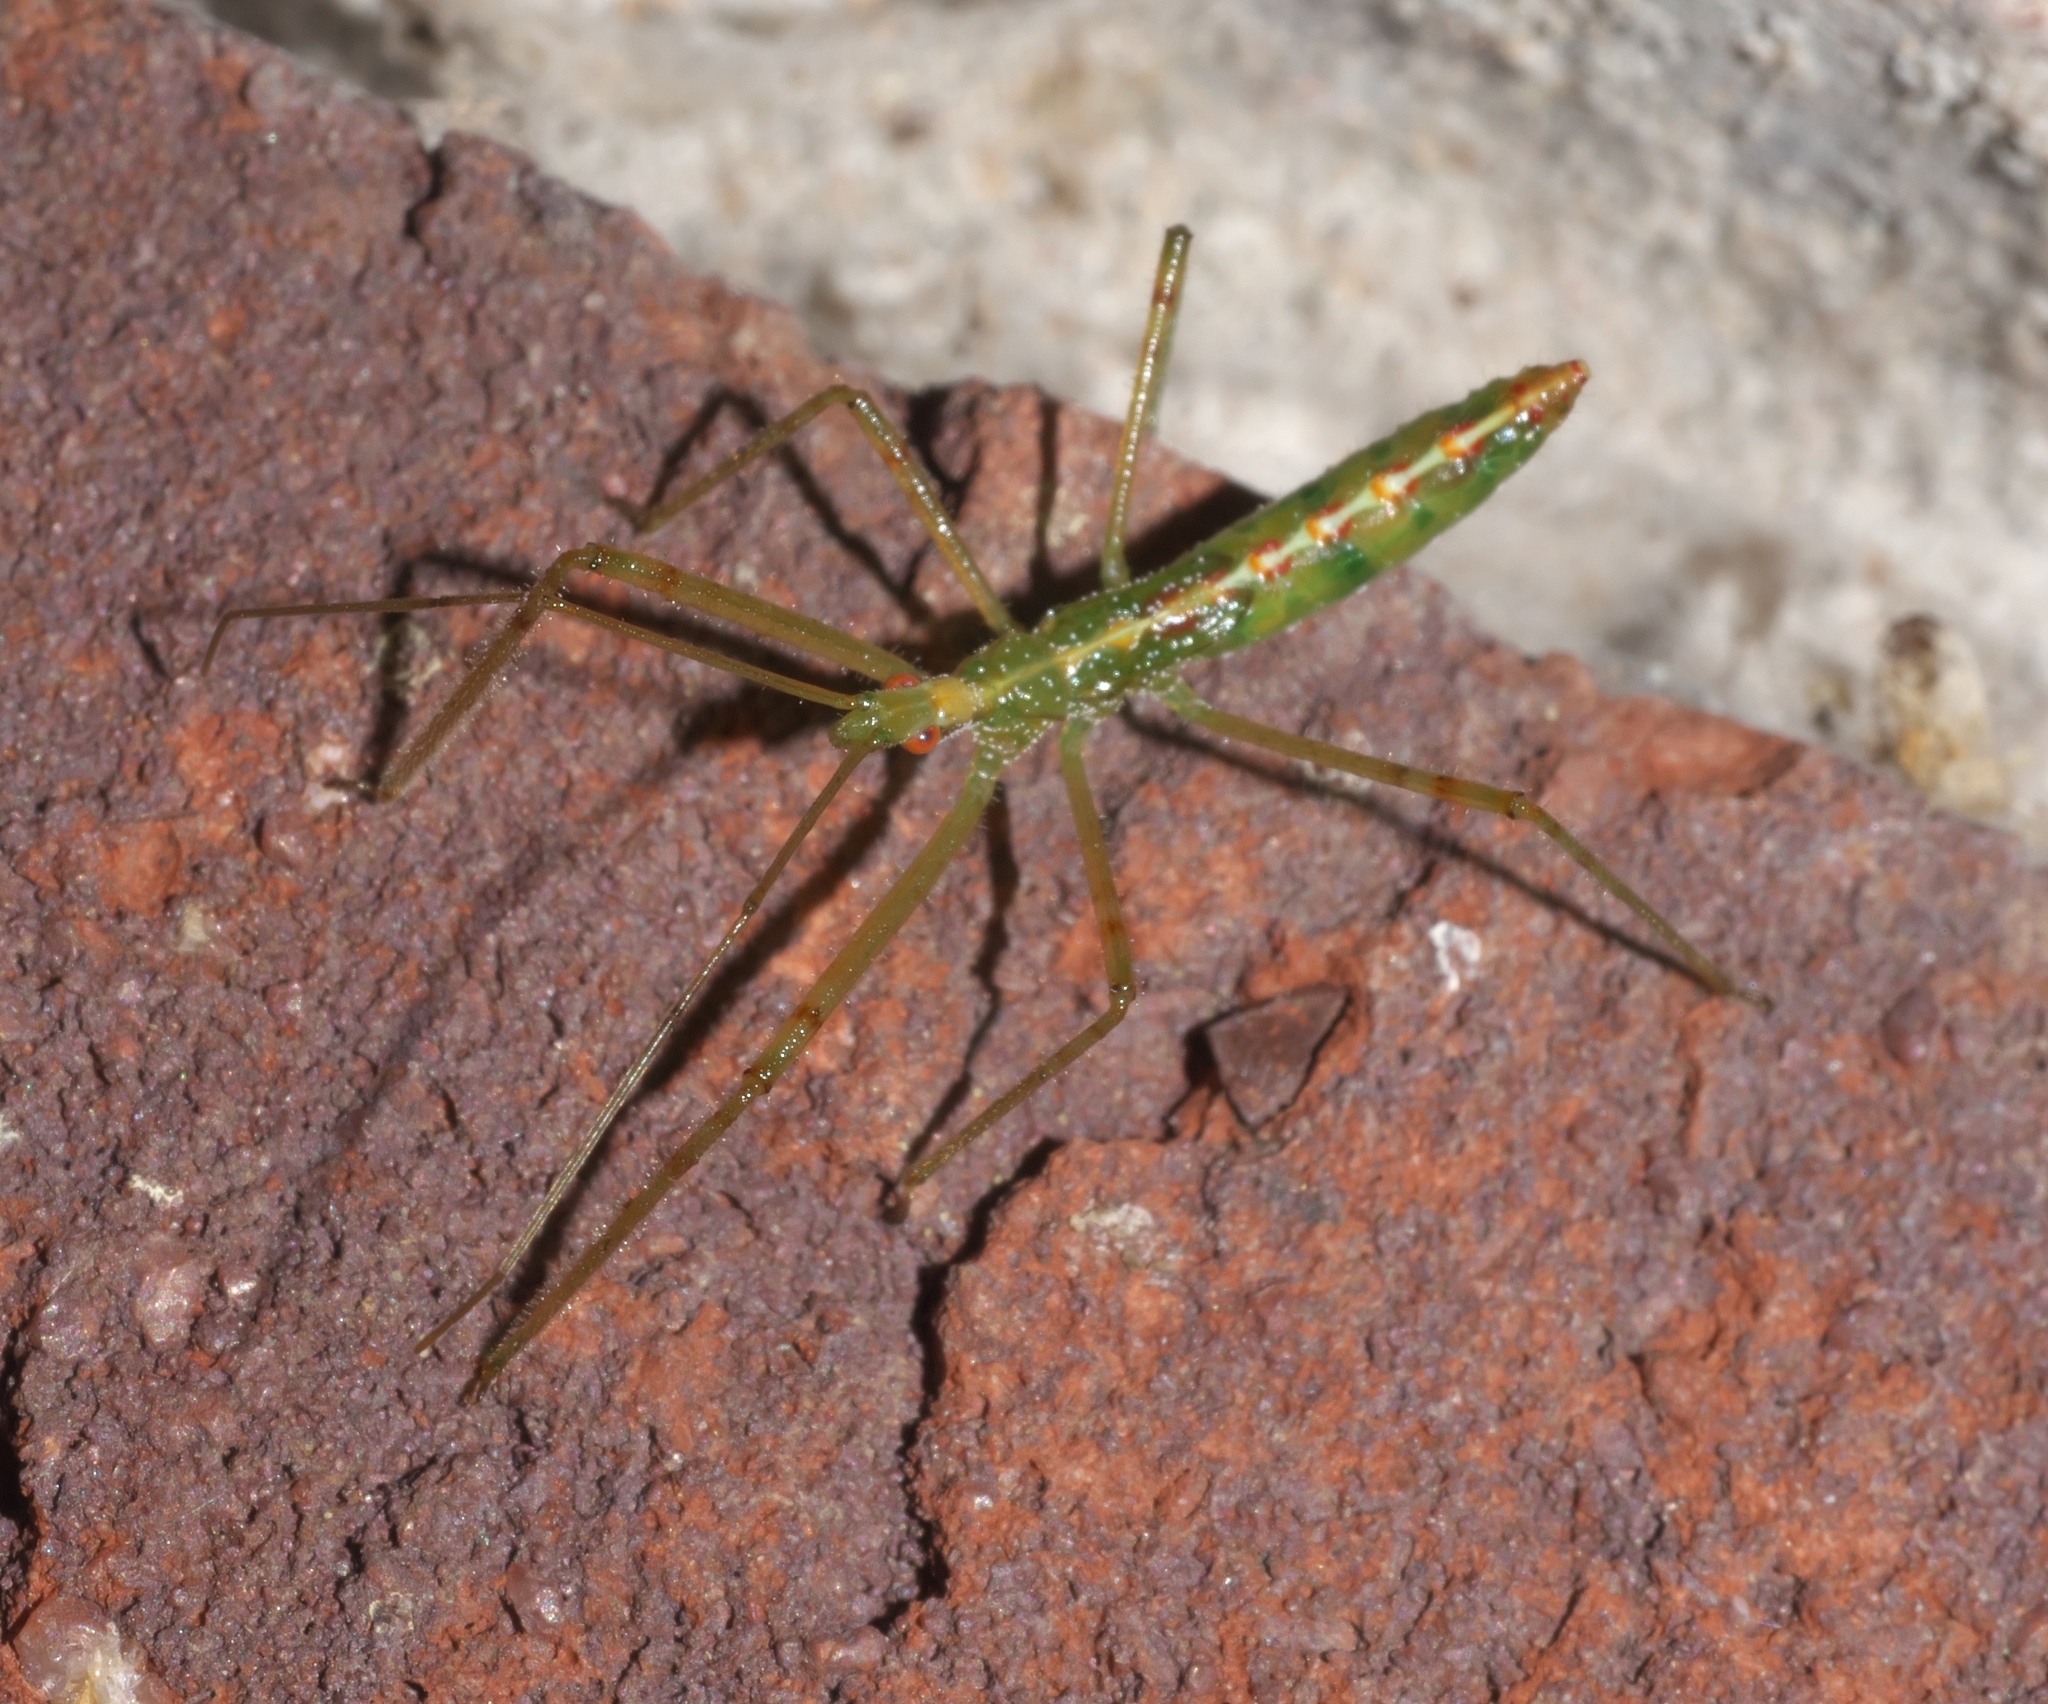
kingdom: Animalia
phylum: Arthropoda
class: Insecta
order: Hemiptera
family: Reduviidae
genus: Zelus
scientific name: Zelus luridus
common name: Pale green assassin bug
